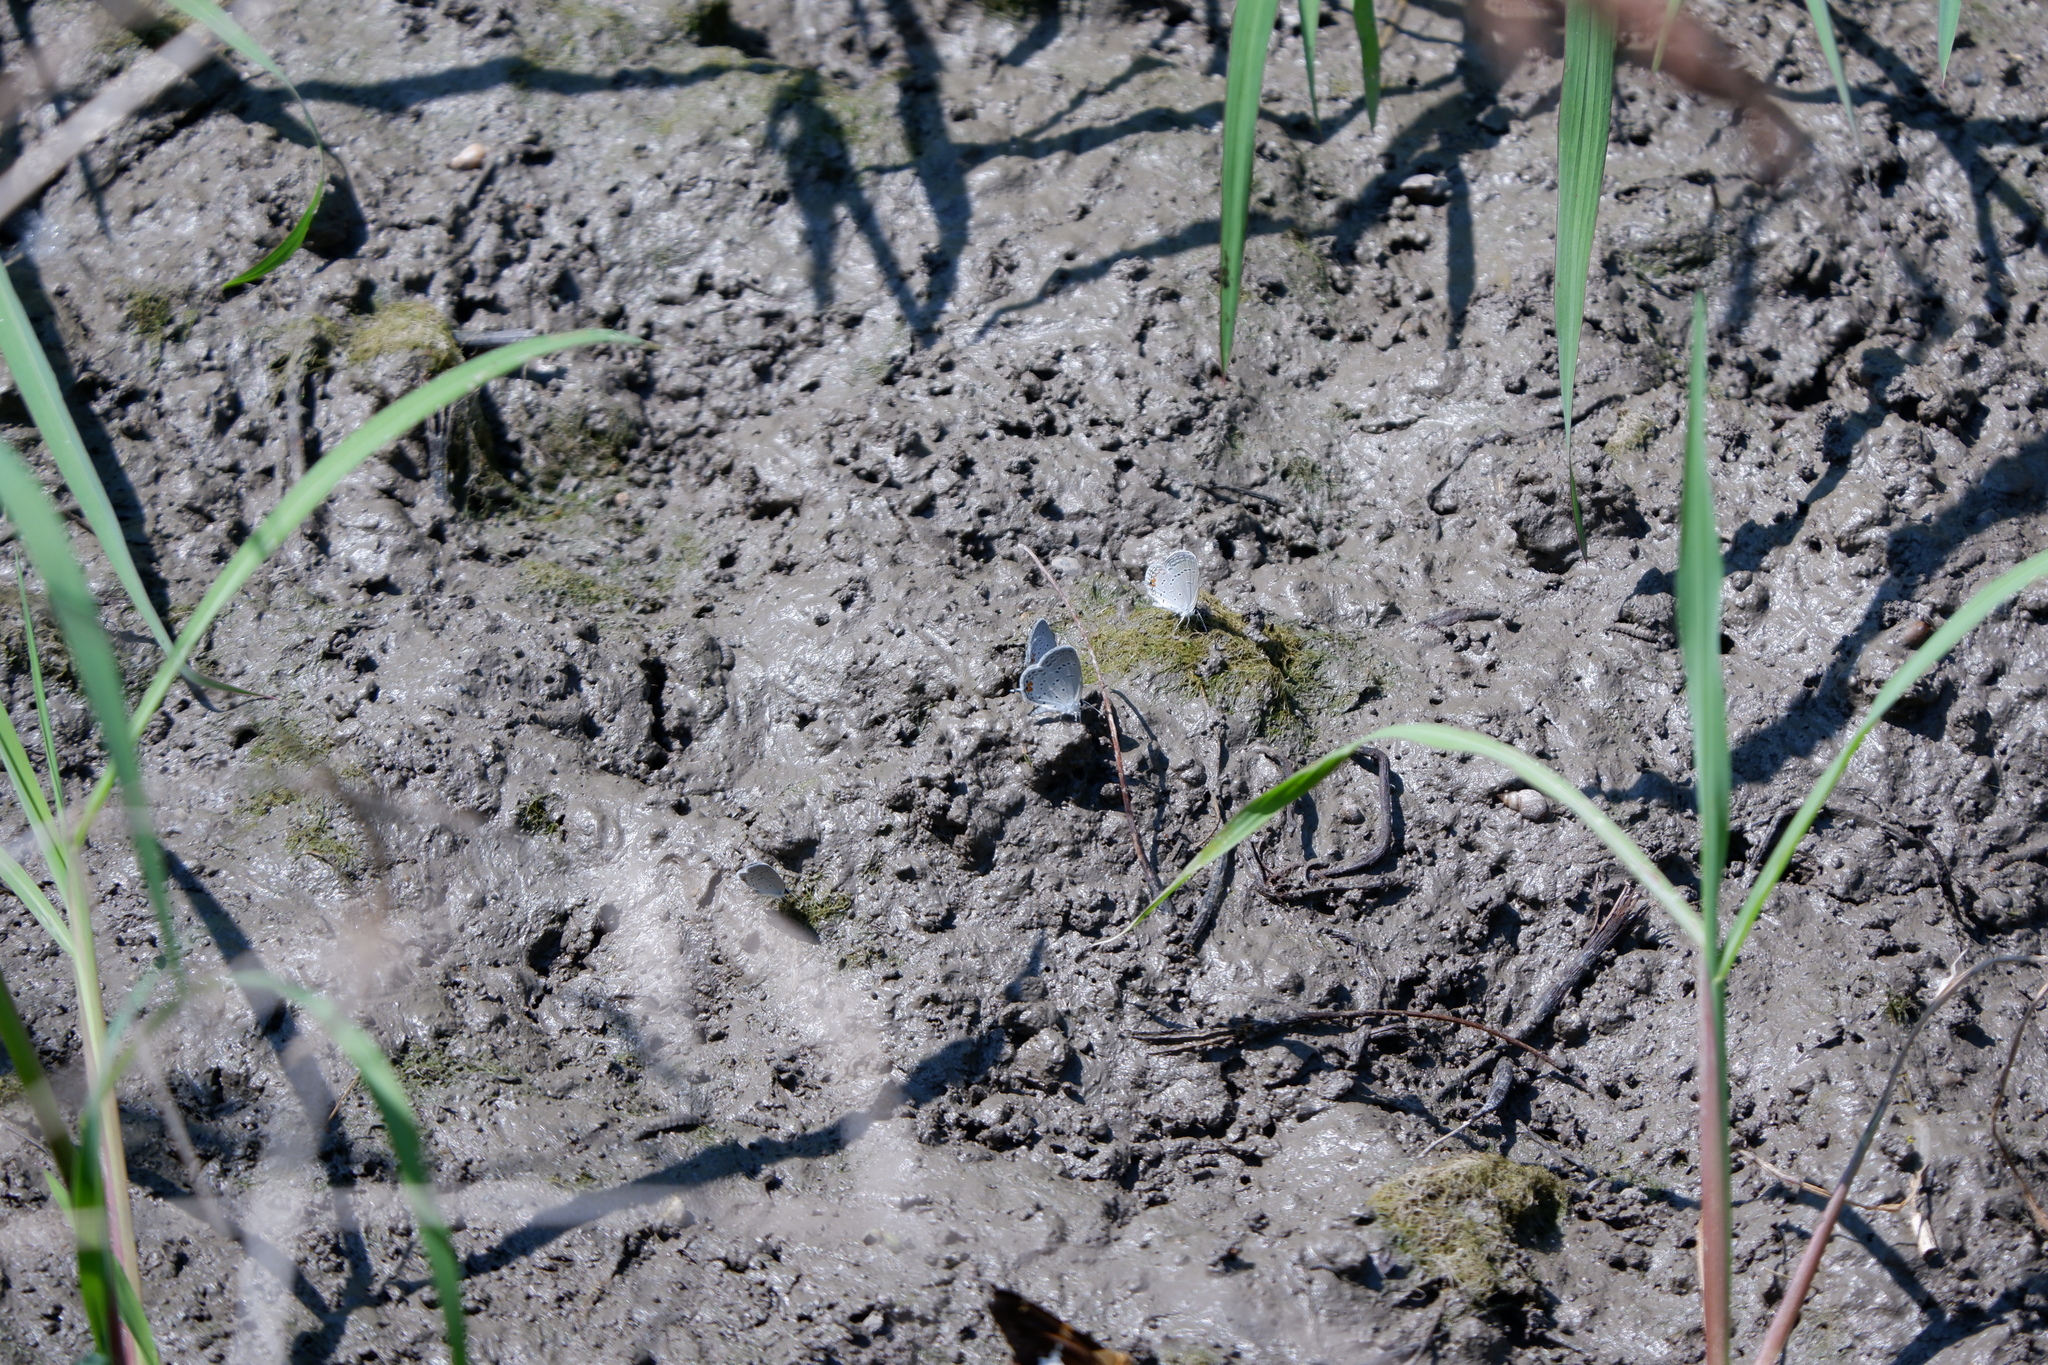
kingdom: Animalia
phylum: Arthropoda
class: Insecta
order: Lepidoptera
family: Lycaenidae
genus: Elkalyce
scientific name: Elkalyce comyntas
